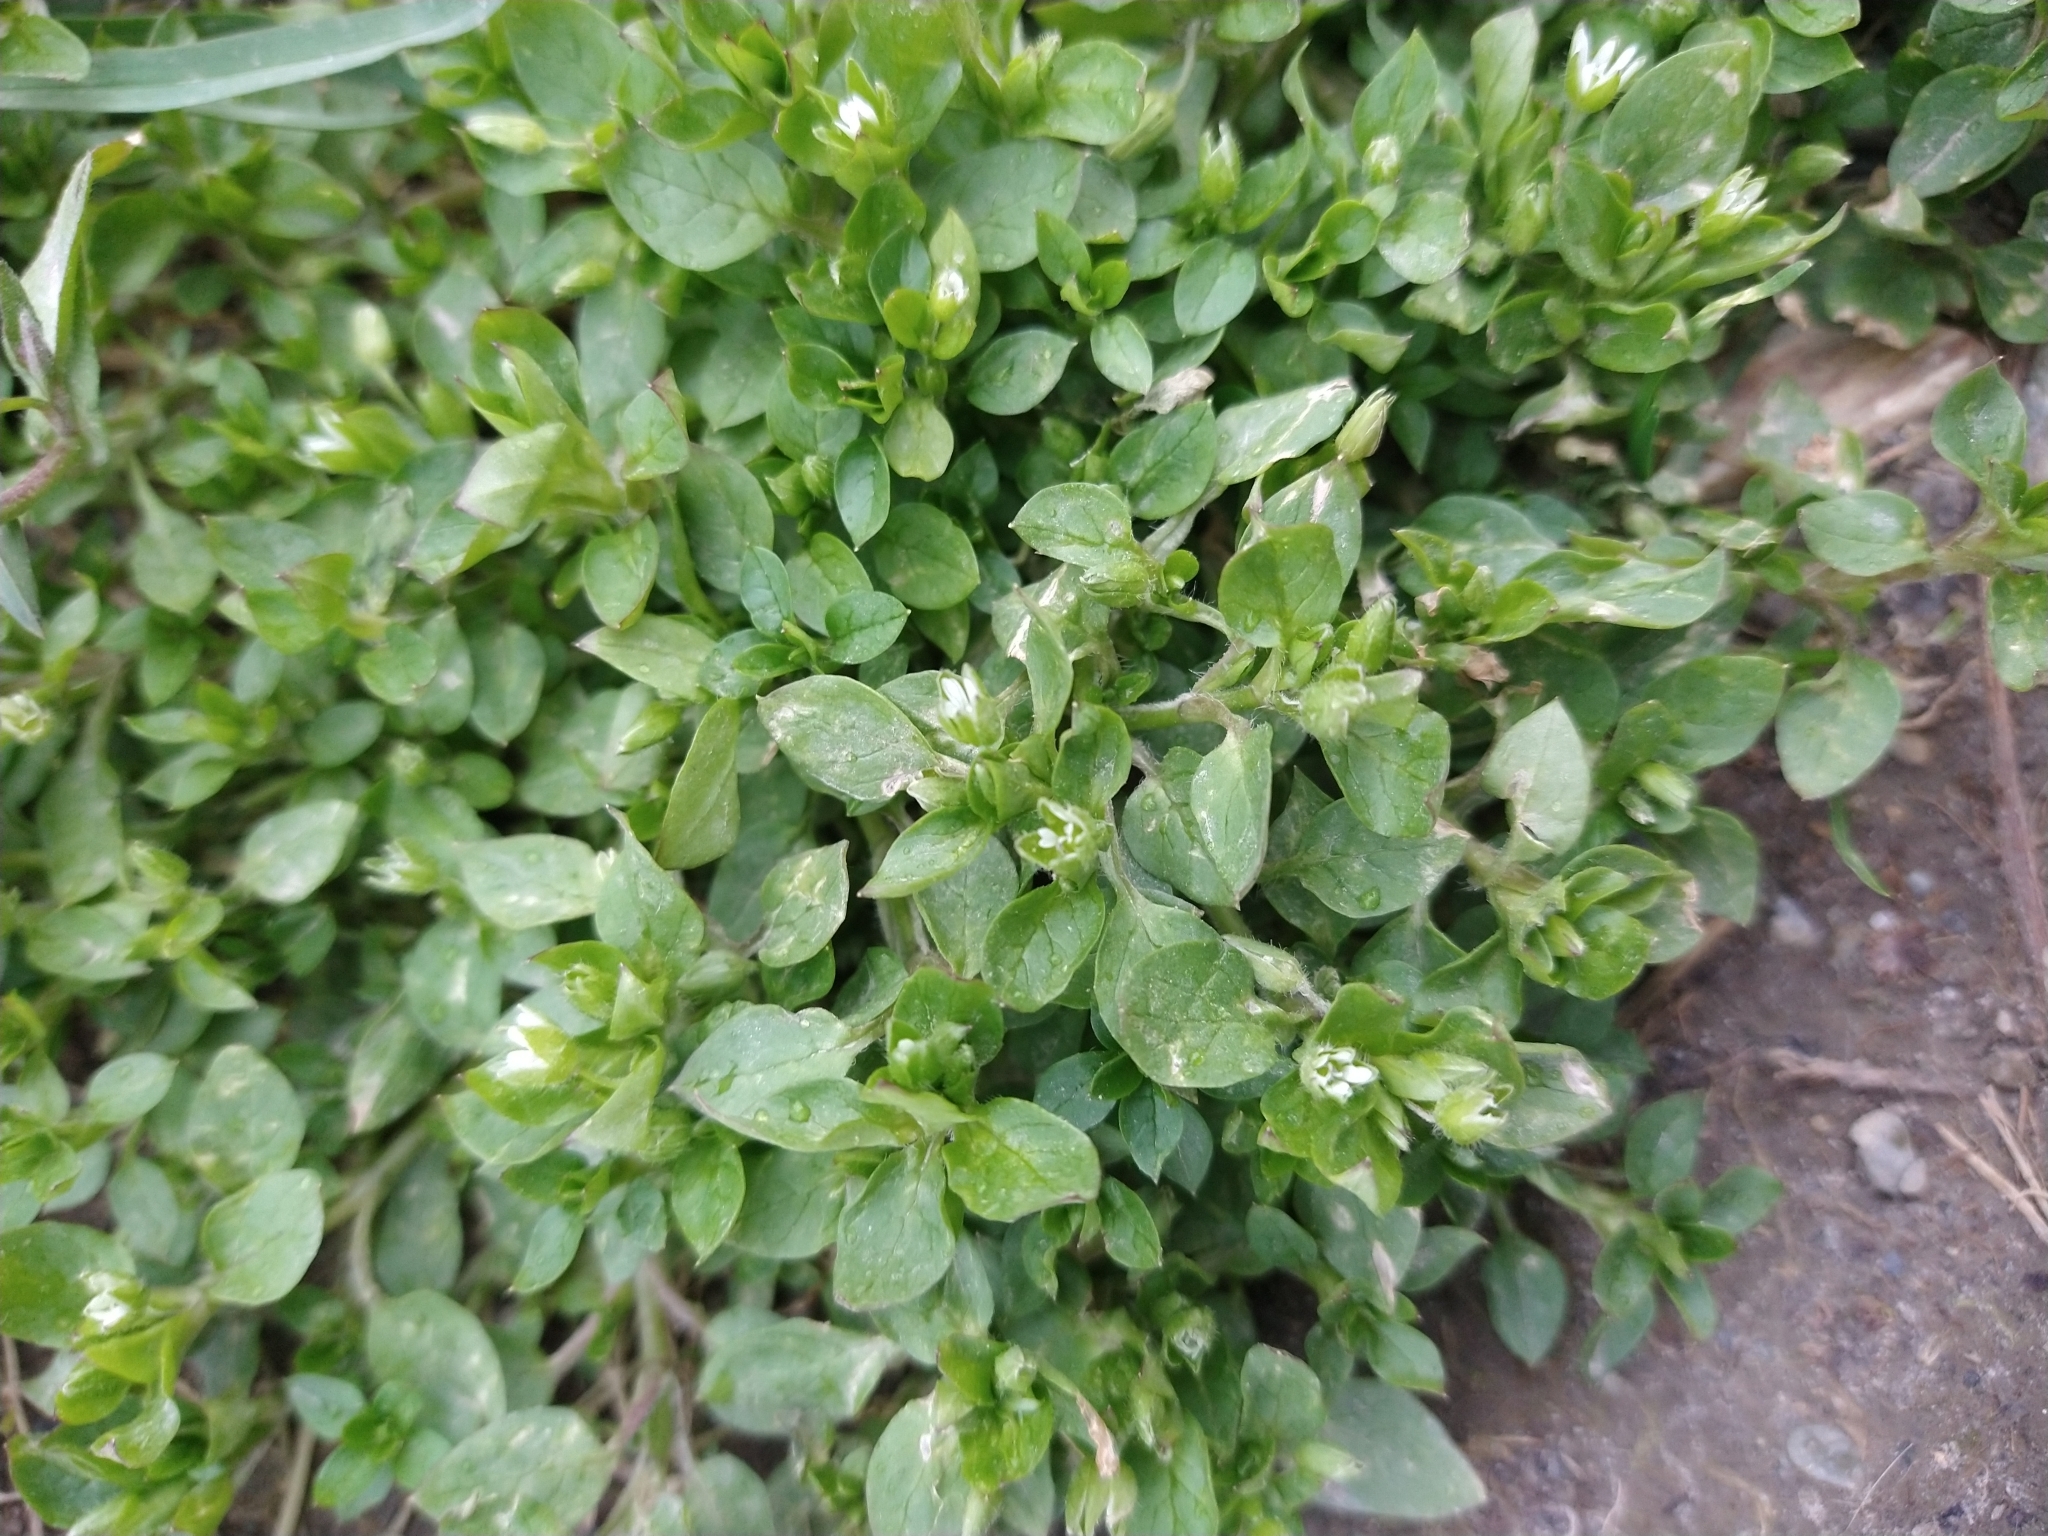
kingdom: Plantae
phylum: Tracheophyta
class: Magnoliopsida
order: Caryophyllales
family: Caryophyllaceae
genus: Stellaria
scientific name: Stellaria media
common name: Common chickweed
